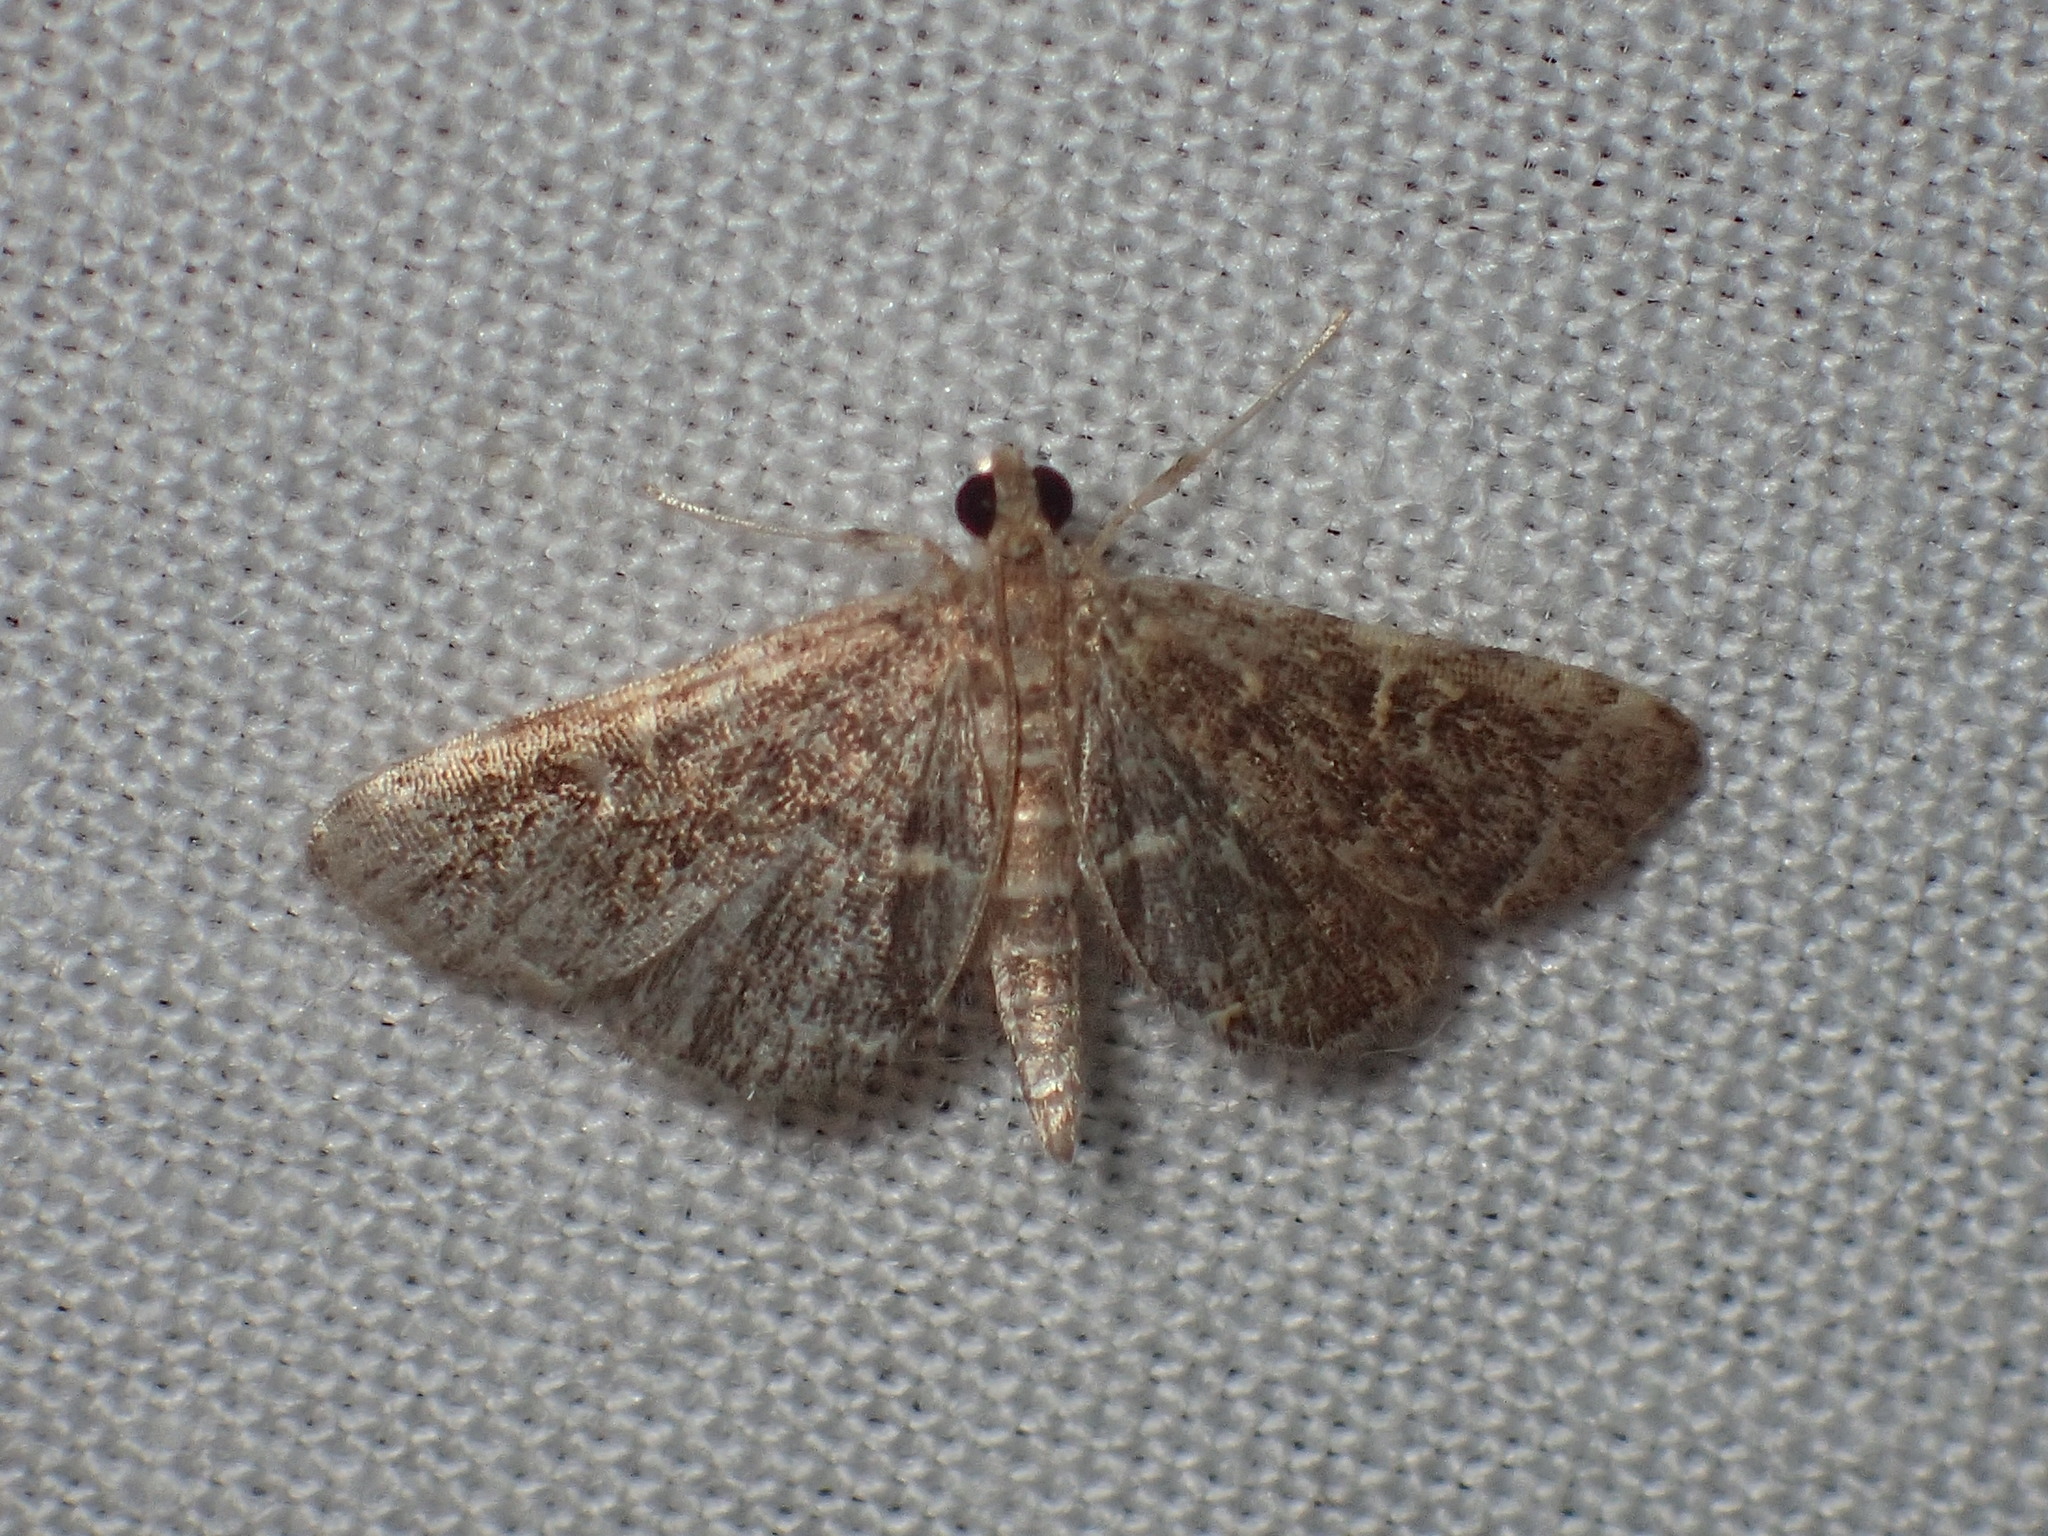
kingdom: Animalia
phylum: Arthropoda
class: Insecta
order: Lepidoptera
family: Crambidae
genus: Apogeshna
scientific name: Apogeshna stenialis
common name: Checkered apogeshna moth
